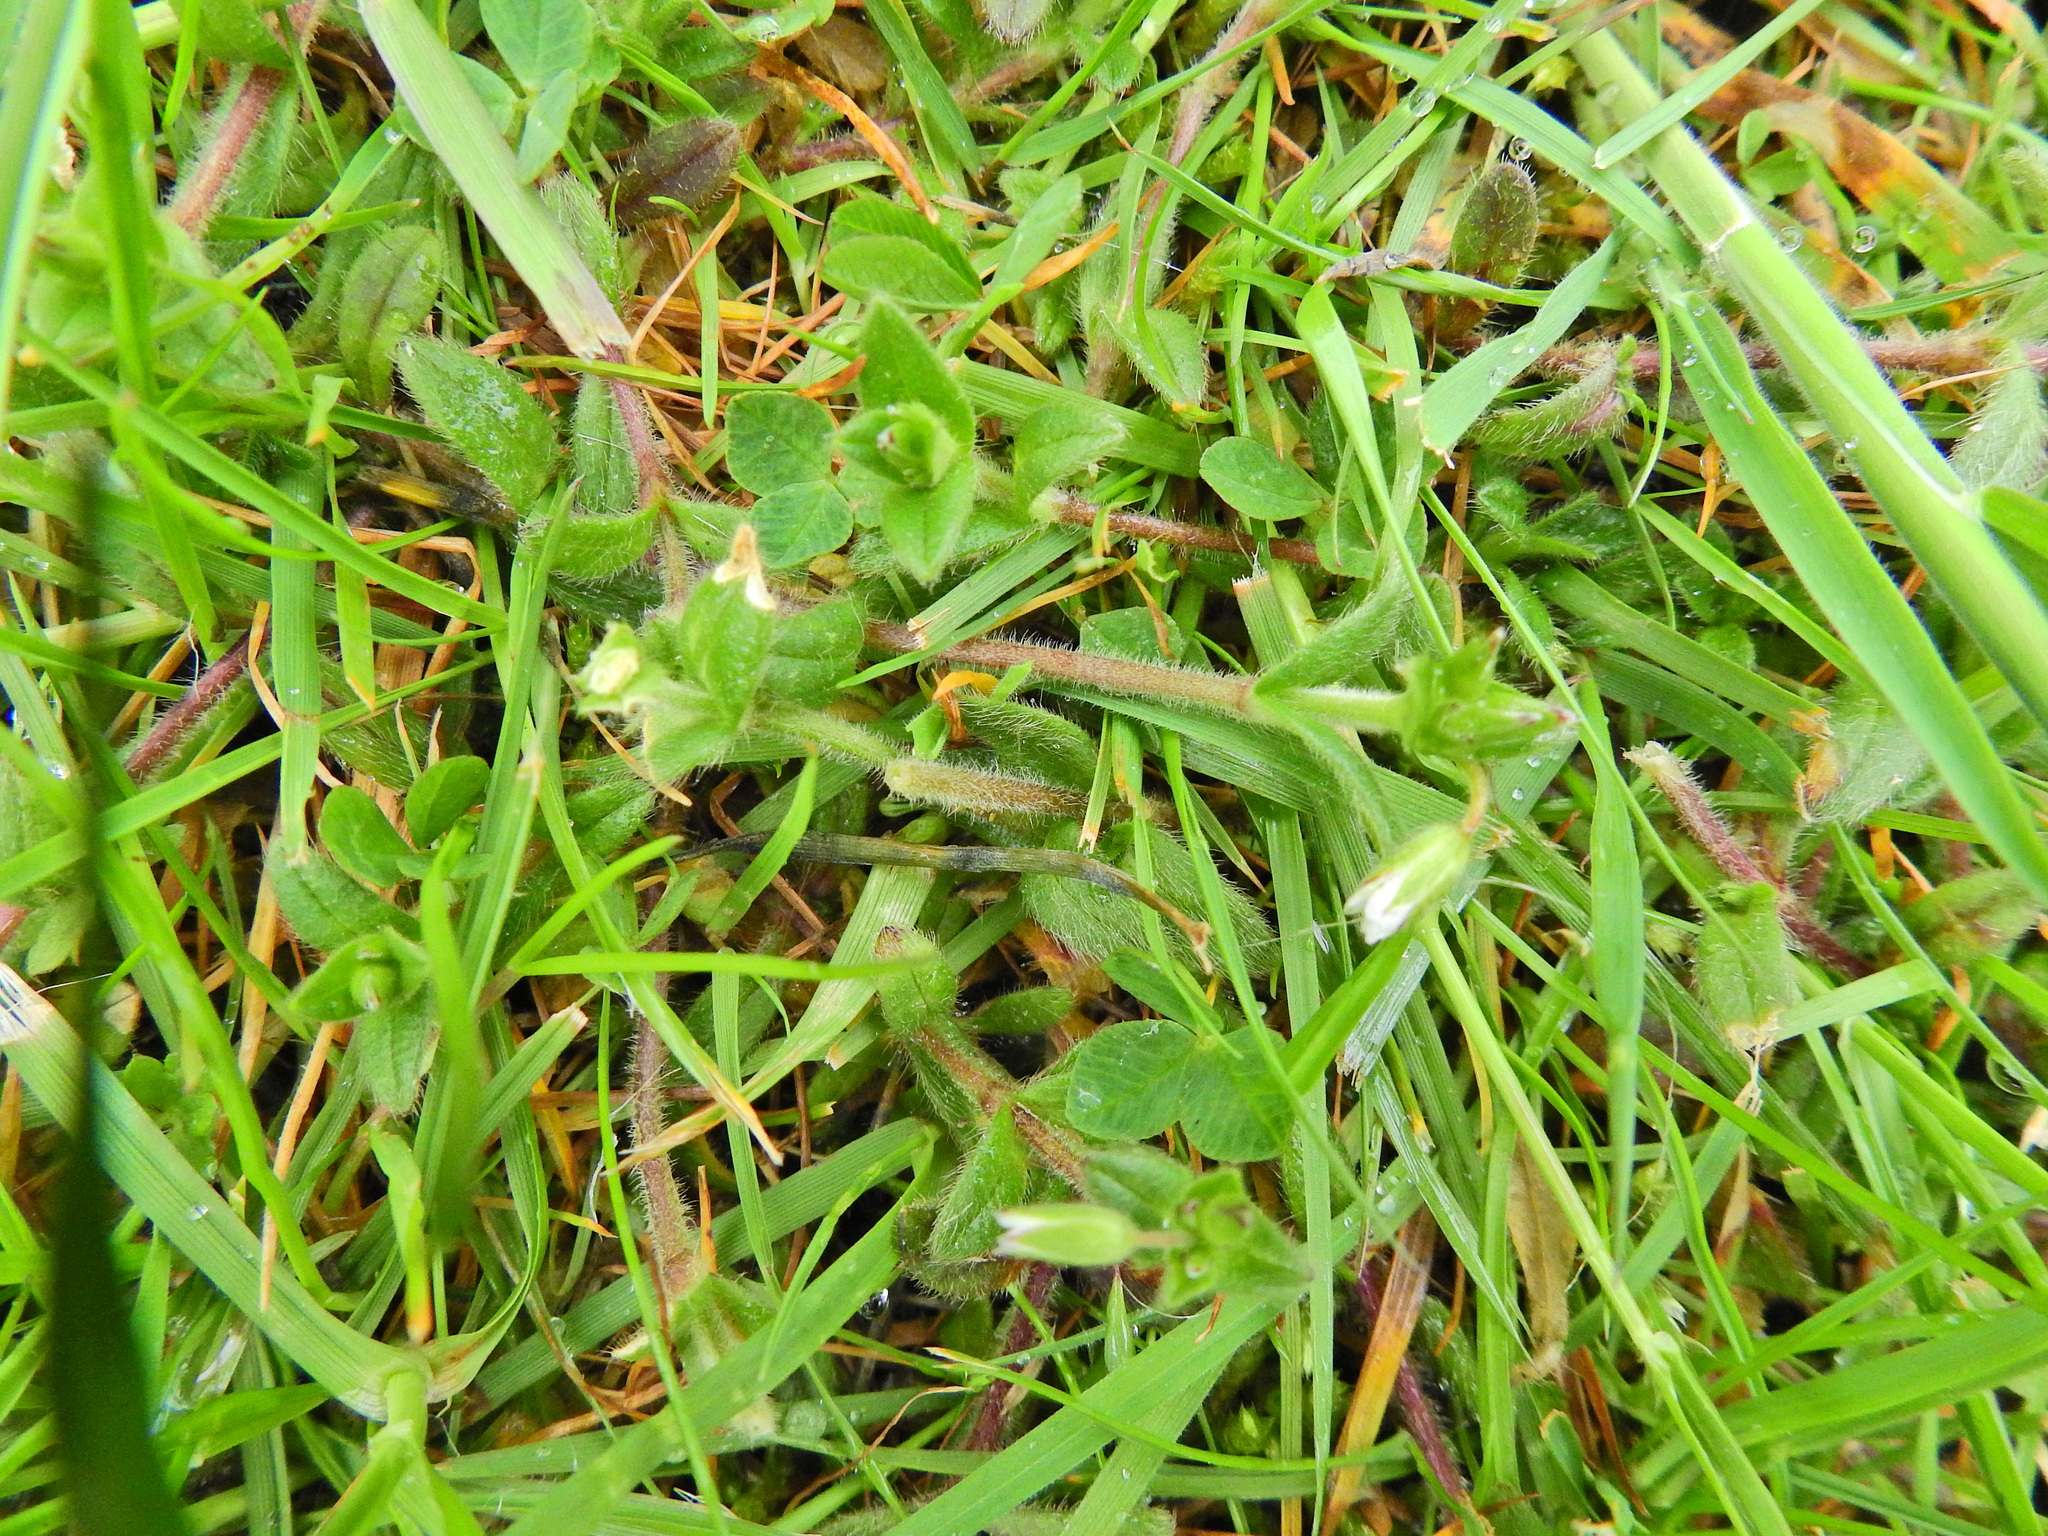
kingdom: Plantae
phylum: Tracheophyta
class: Magnoliopsida
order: Caryophyllales
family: Caryophyllaceae
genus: Cerastium
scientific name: Cerastium fontanum
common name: Common mouse-ear
